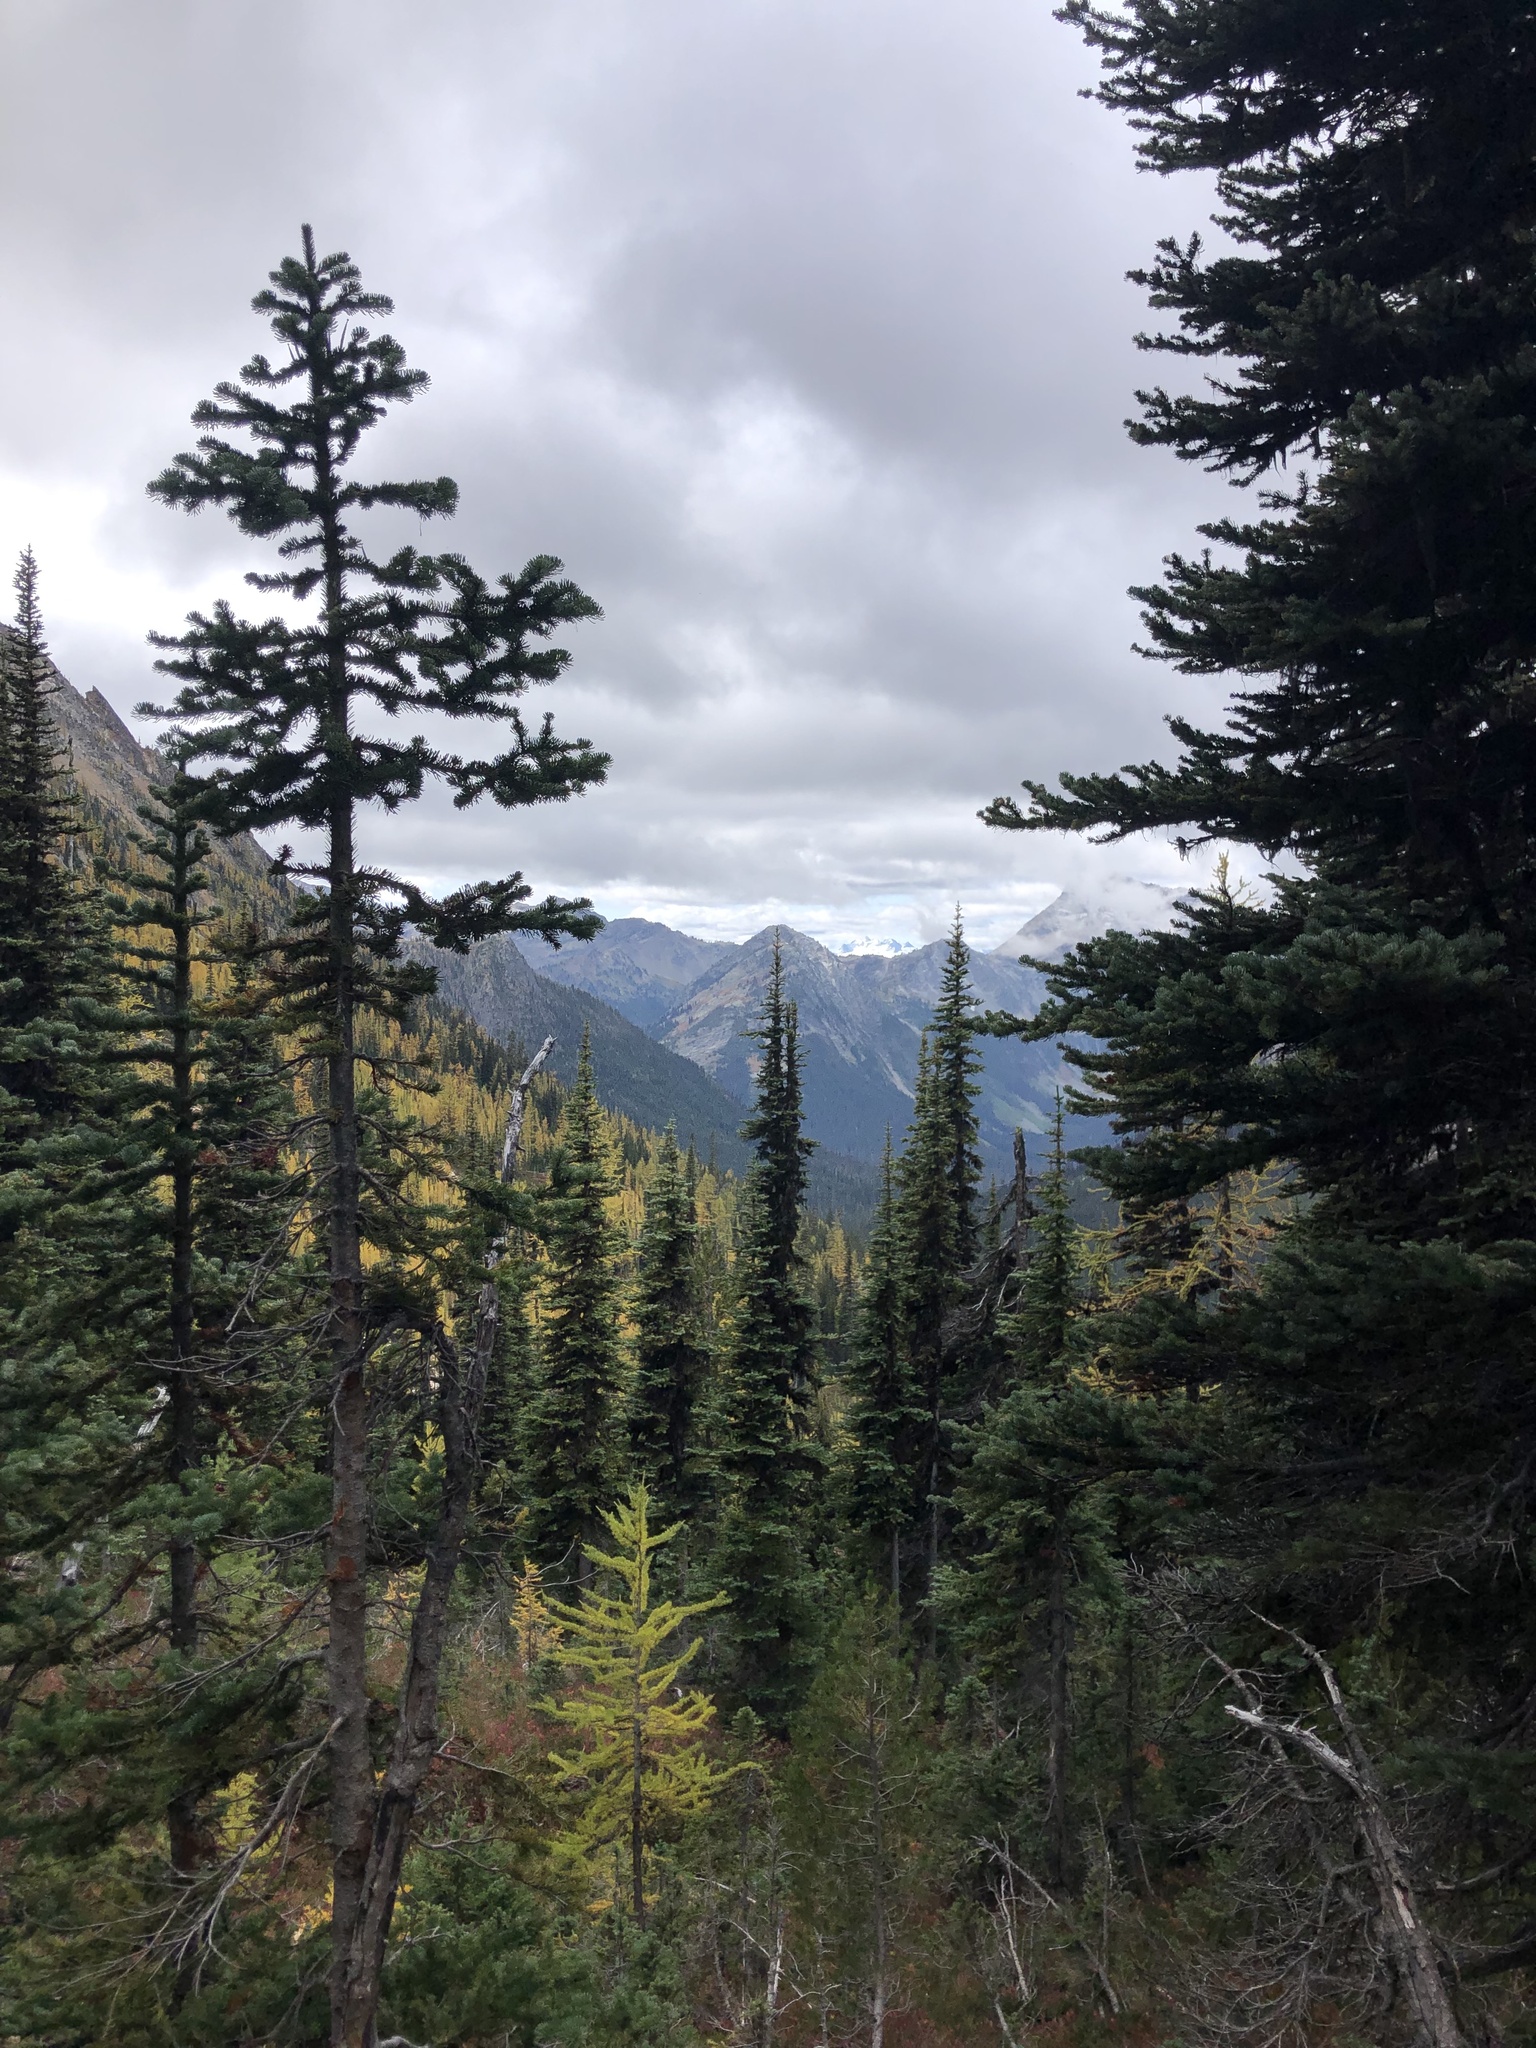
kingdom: Plantae
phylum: Tracheophyta
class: Pinopsida
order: Pinales
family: Pinaceae
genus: Larix
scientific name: Larix lyallii
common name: Alpine larch
